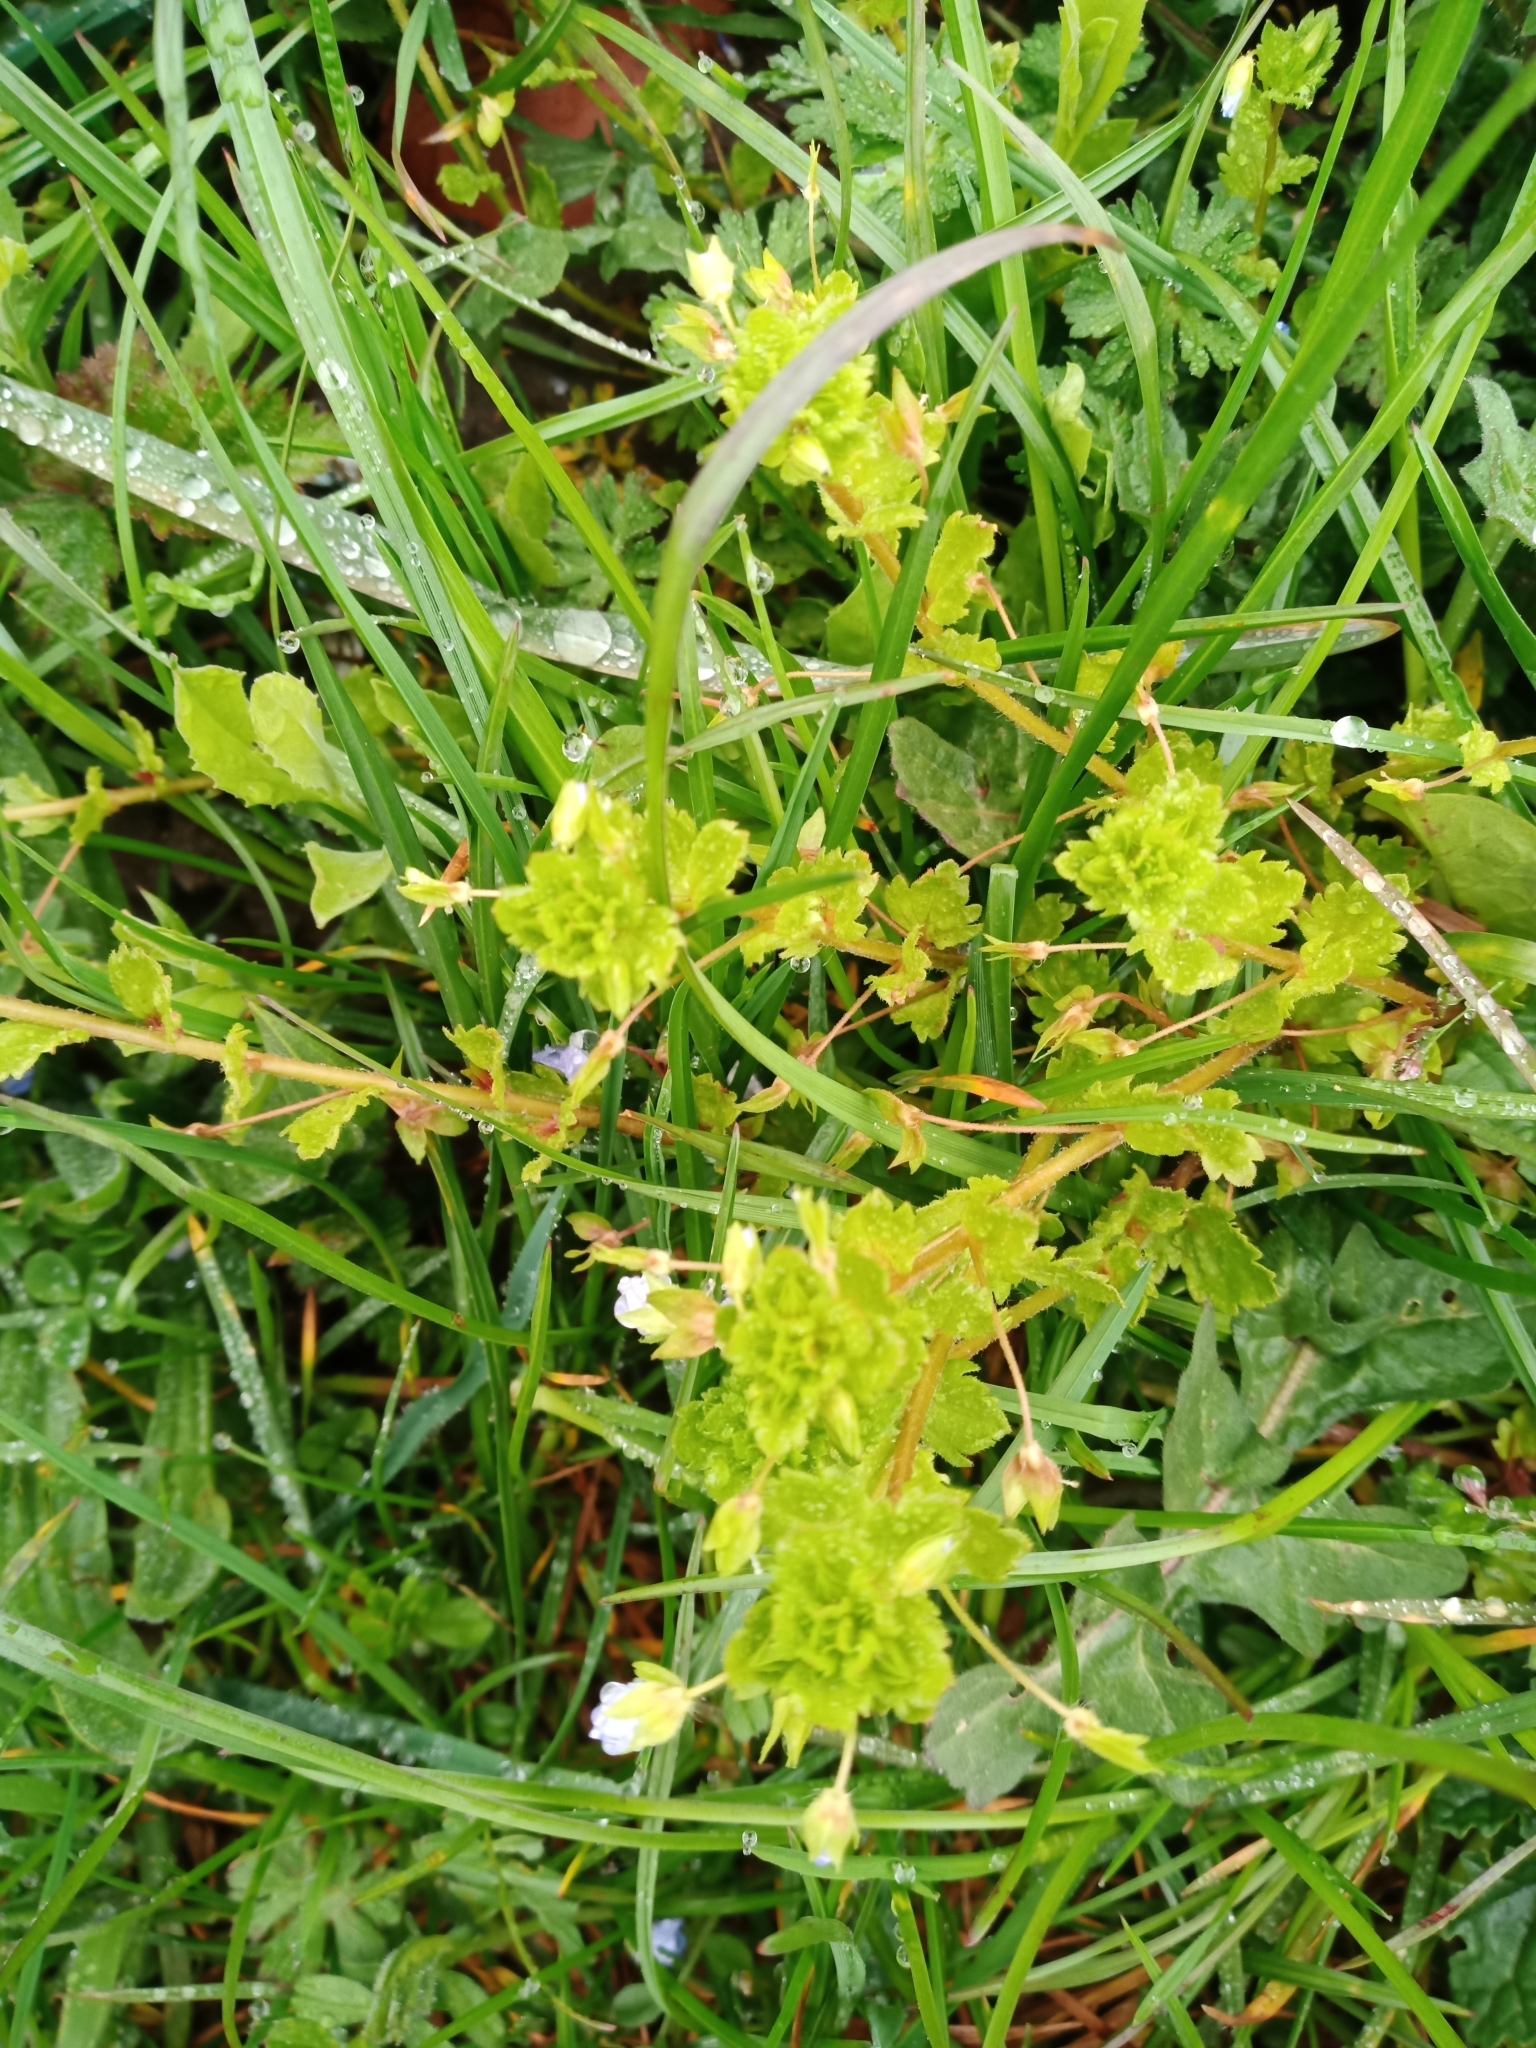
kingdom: Plantae
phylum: Tracheophyta
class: Magnoliopsida
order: Lamiales
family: Plantaginaceae
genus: Veronica
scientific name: Veronica persica
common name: Common field-speedwell
